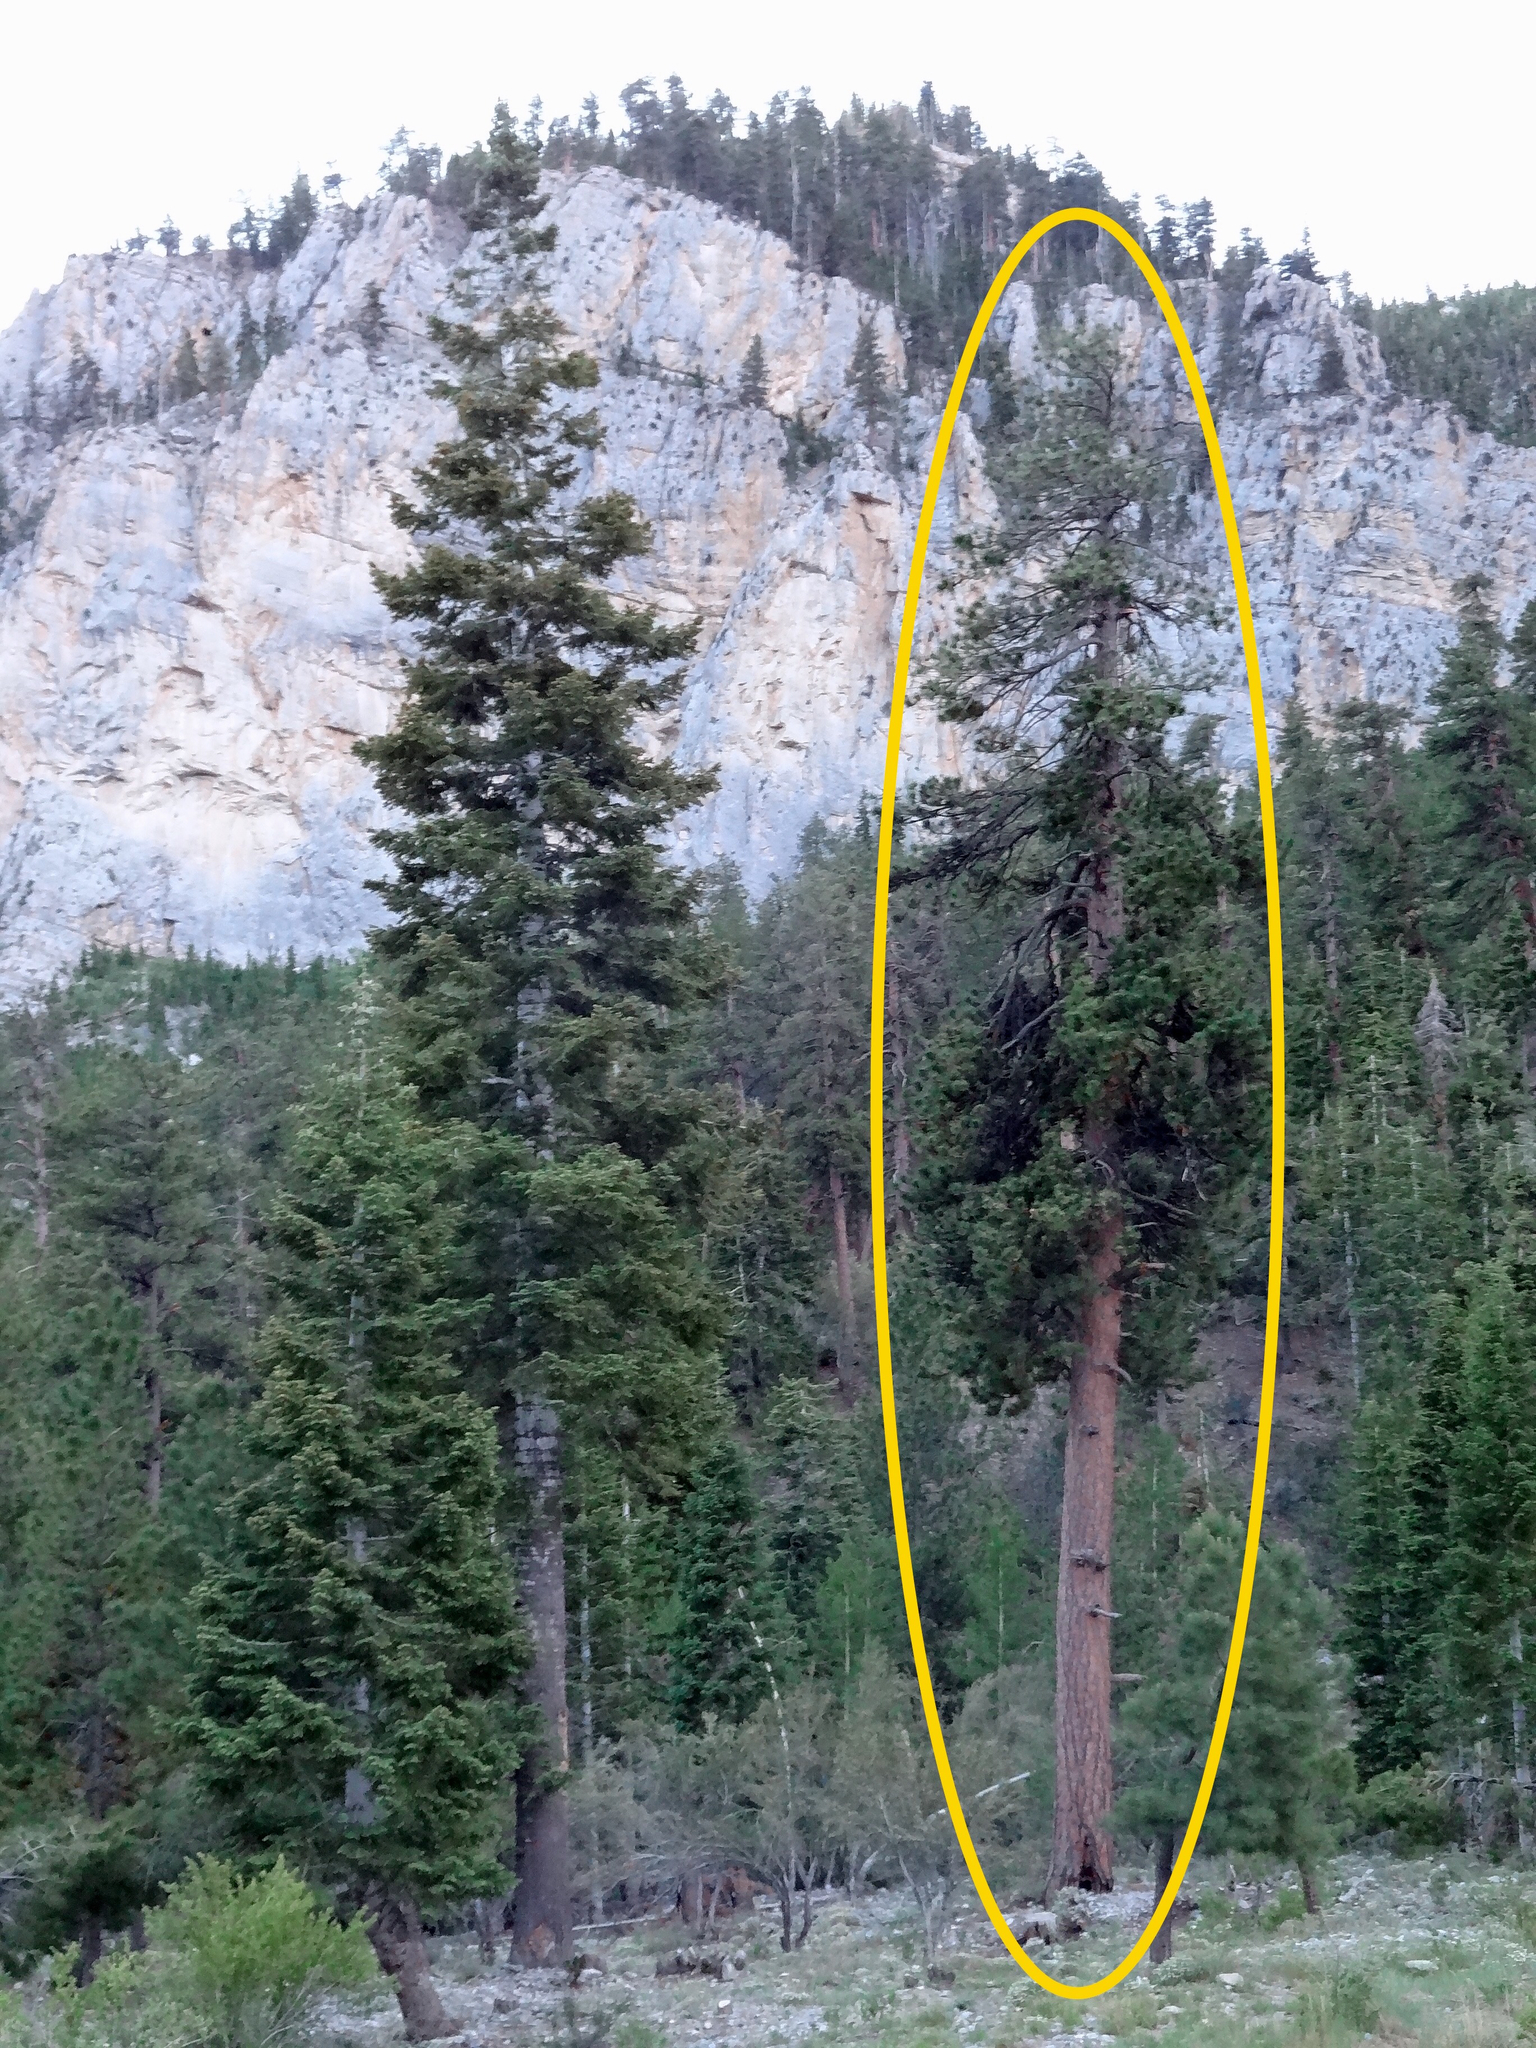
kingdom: Plantae
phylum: Tracheophyta
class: Pinopsida
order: Pinales
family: Pinaceae
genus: Pinus
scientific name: Pinus ponderosa
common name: Western yellow-pine
